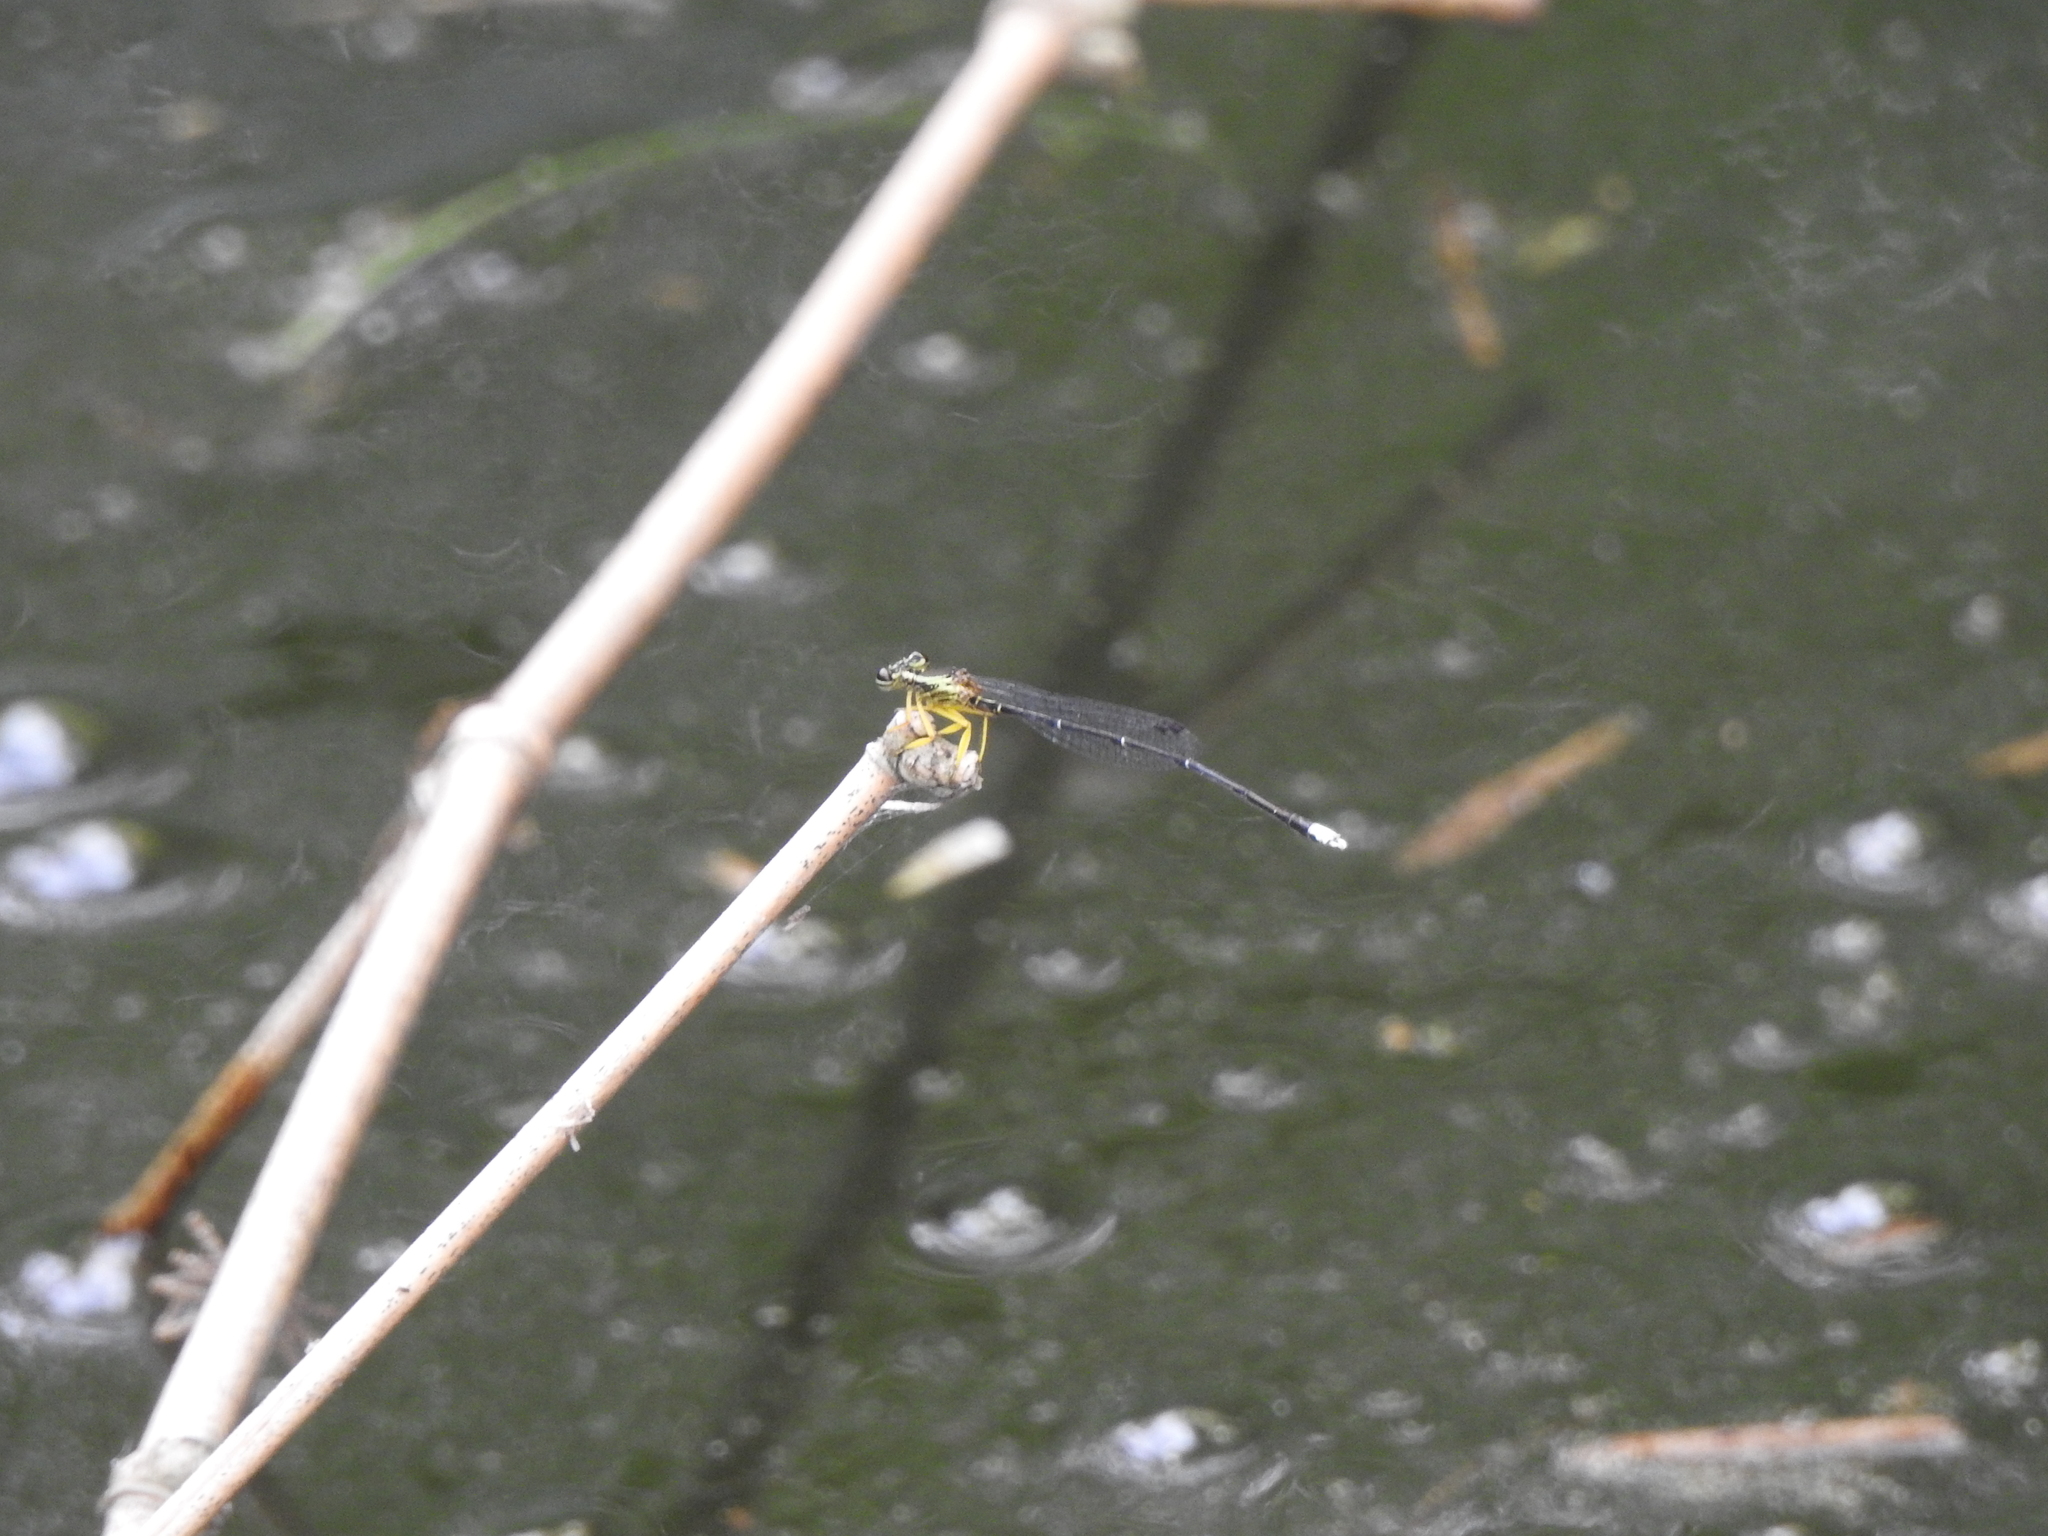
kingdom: Animalia
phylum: Arthropoda
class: Insecta
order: Odonata
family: Platycnemididae
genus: Copera
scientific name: Copera marginipes
